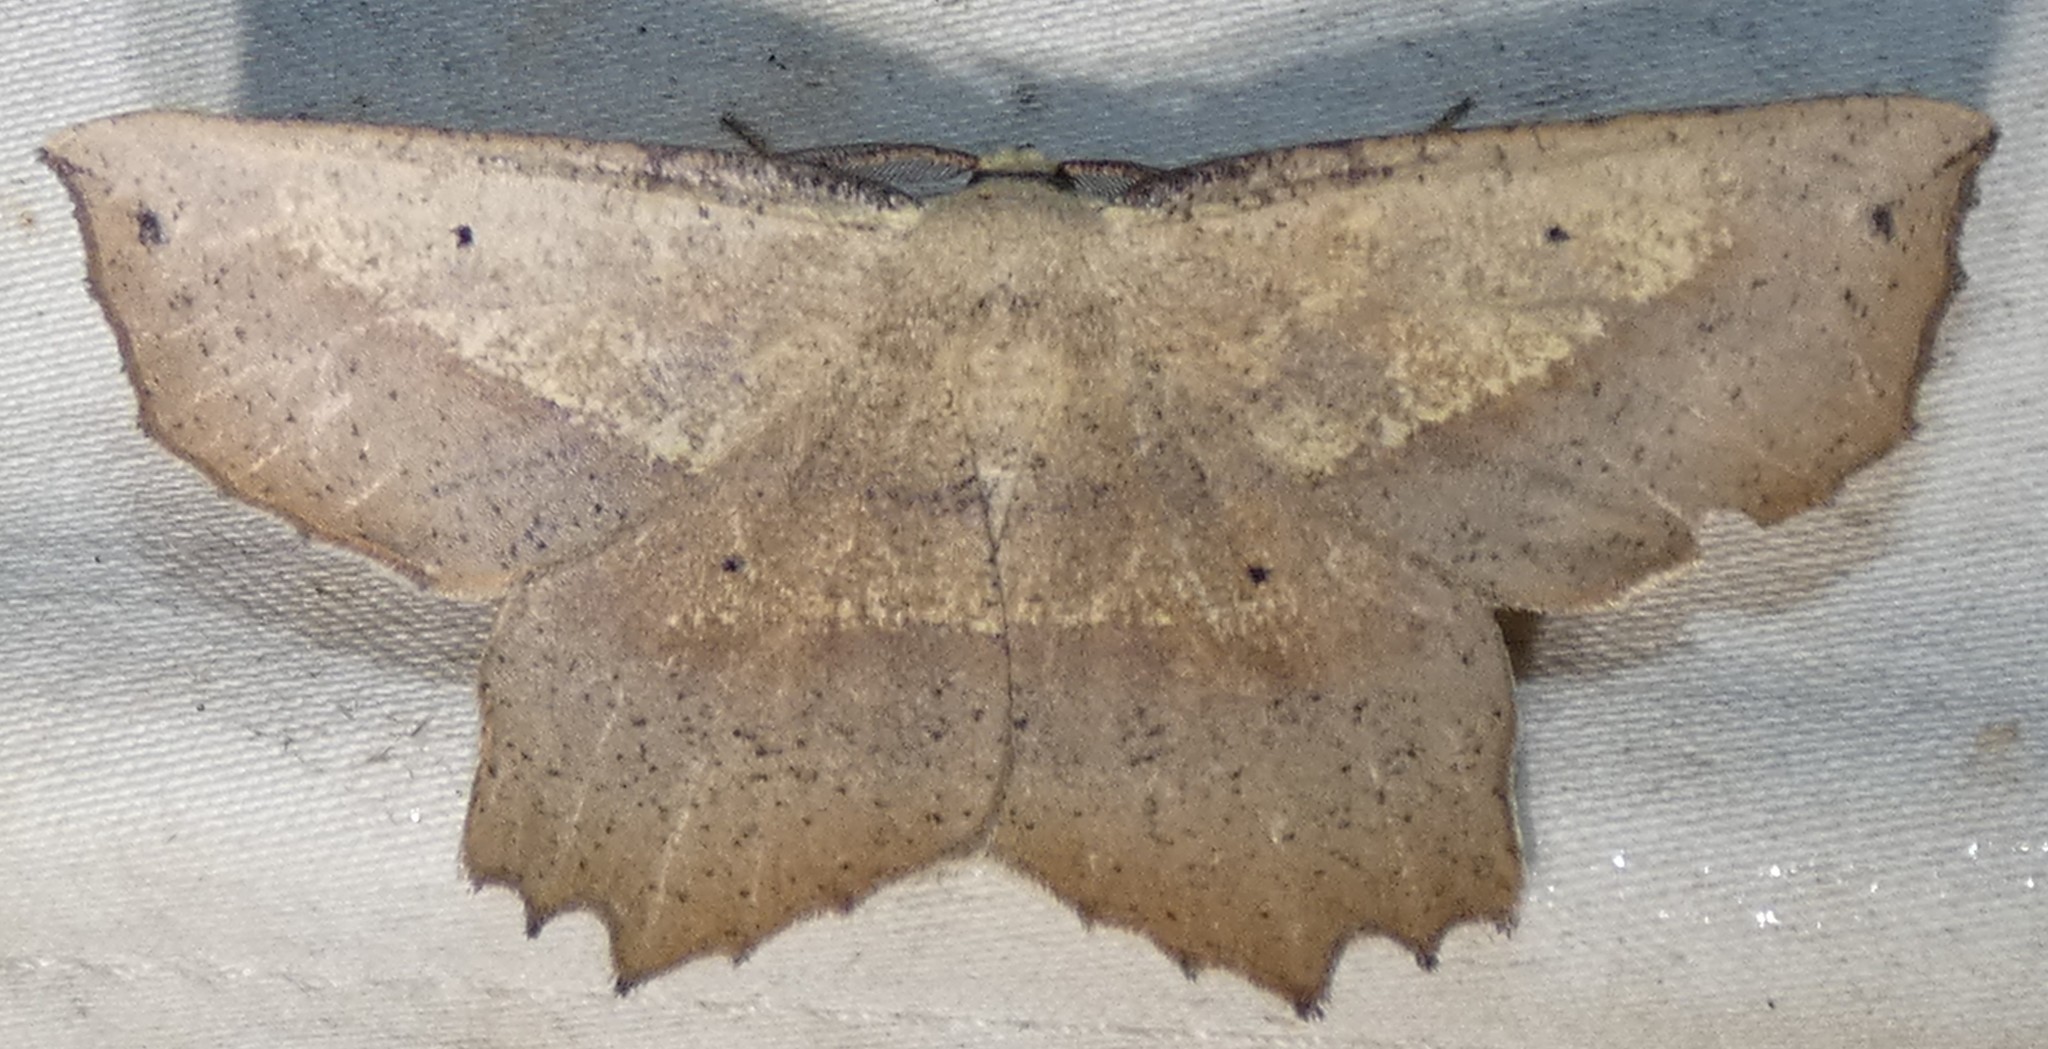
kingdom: Animalia
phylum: Arthropoda
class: Insecta
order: Lepidoptera
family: Geometridae
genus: Euchlaena
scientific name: Euchlaena obtusaria
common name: Obtuse euchlaena moth
